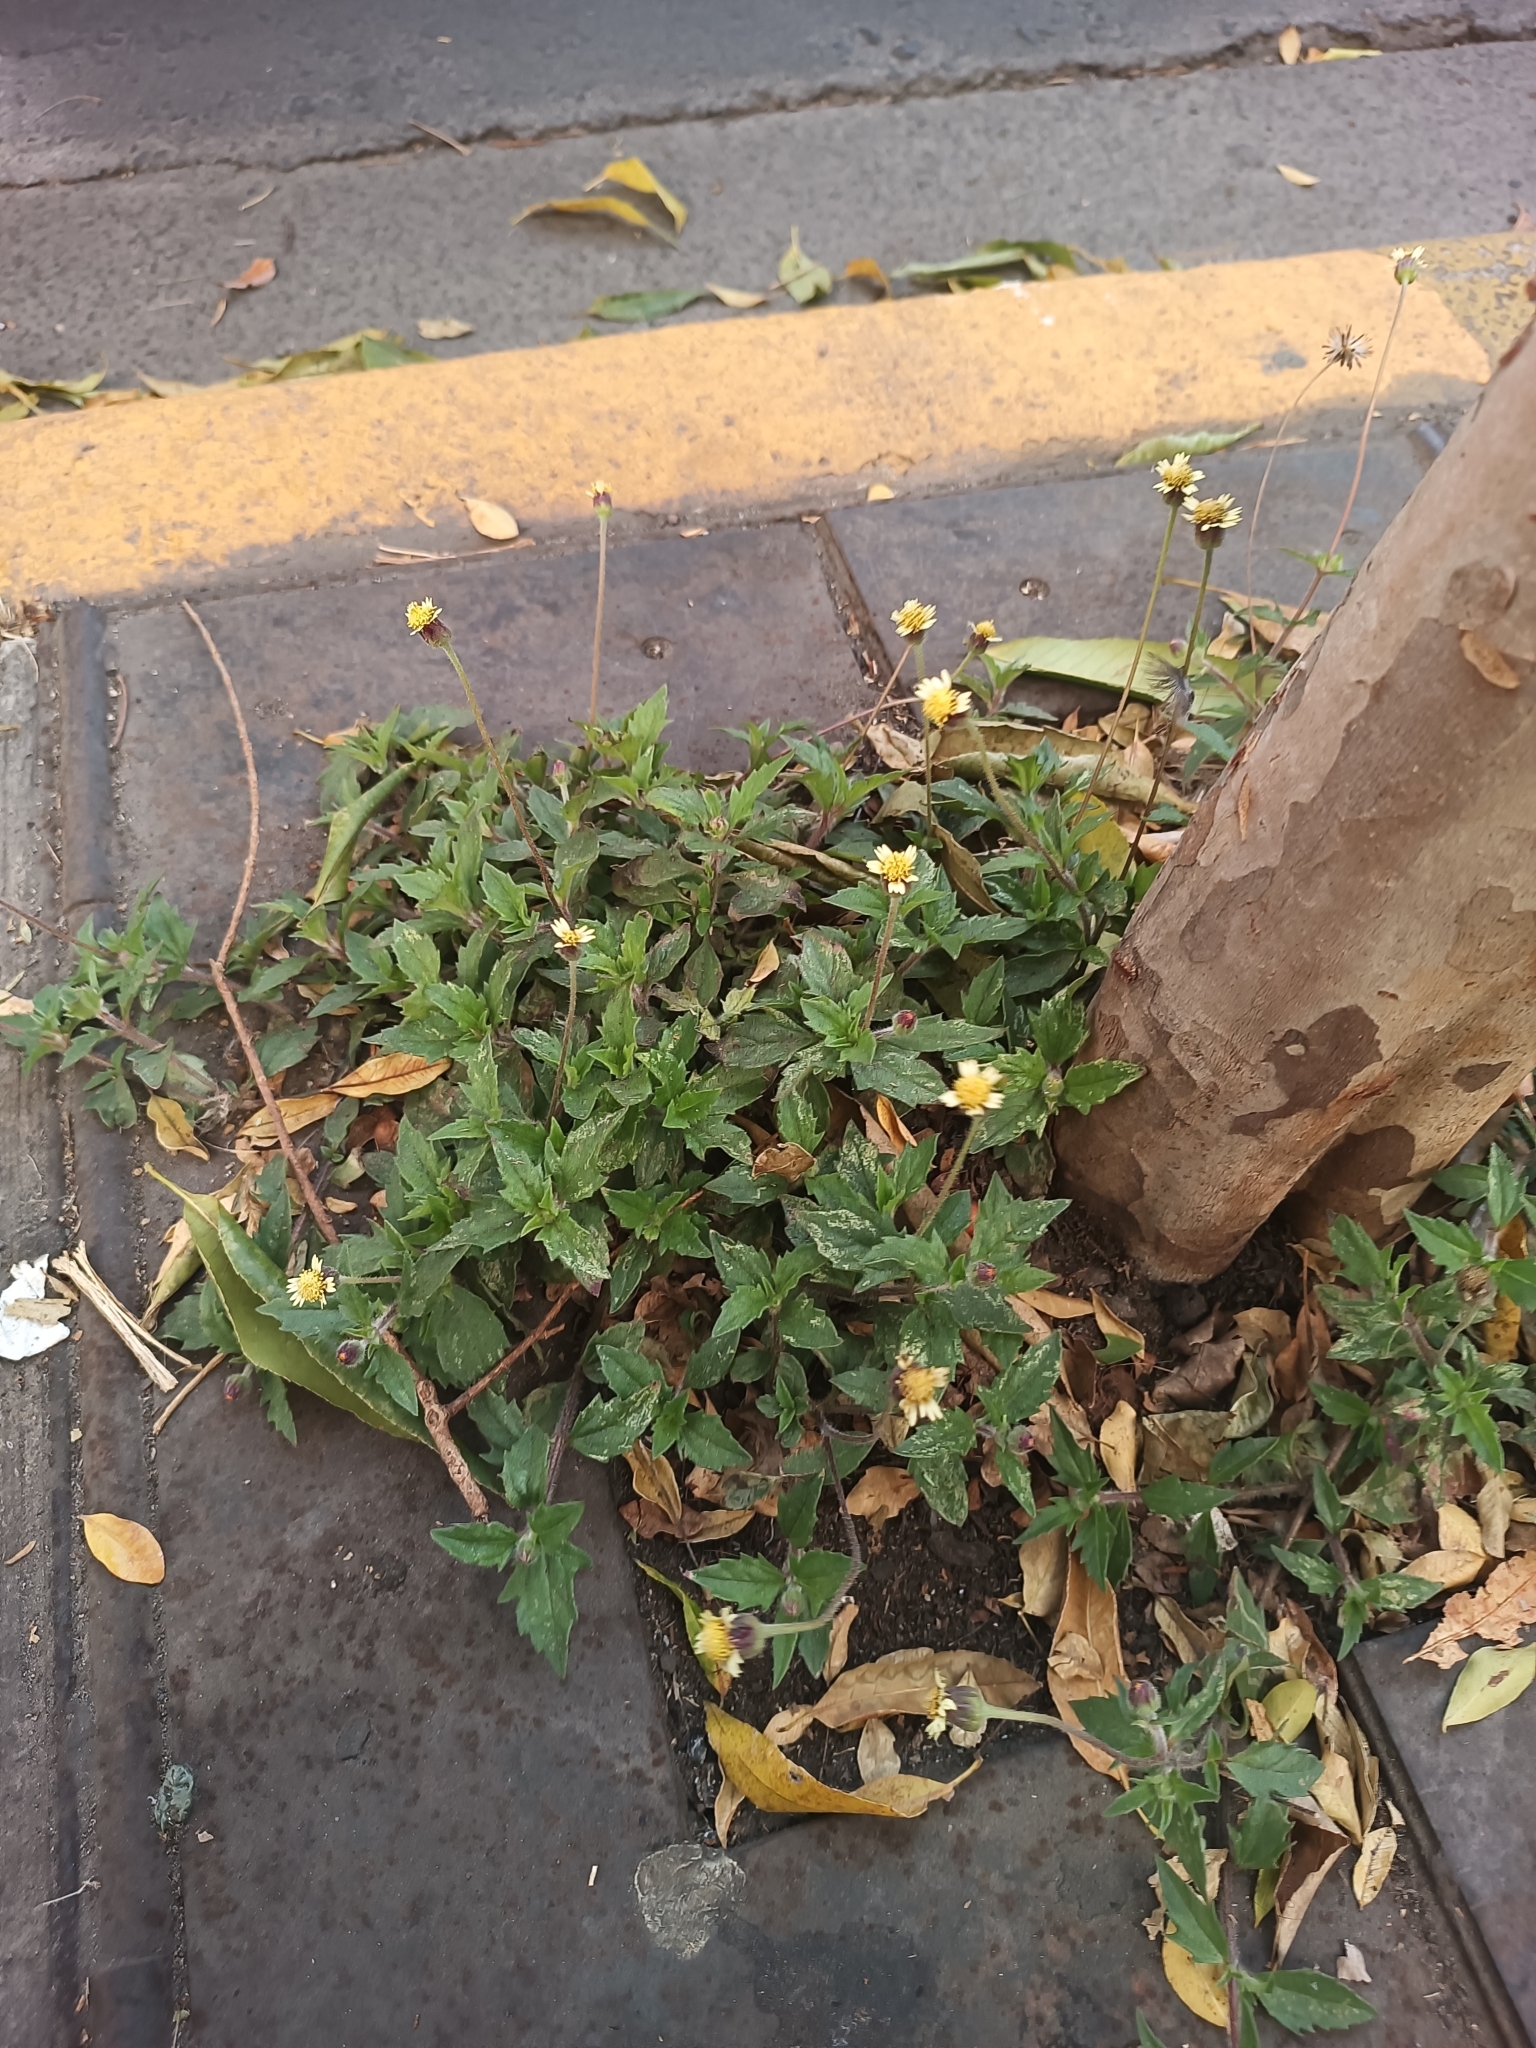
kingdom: Plantae
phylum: Tracheophyta
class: Magnoliopsida
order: Asterales
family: Asteraceae
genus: Tridax
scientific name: Tridax procumbens
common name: Coatbuttons
